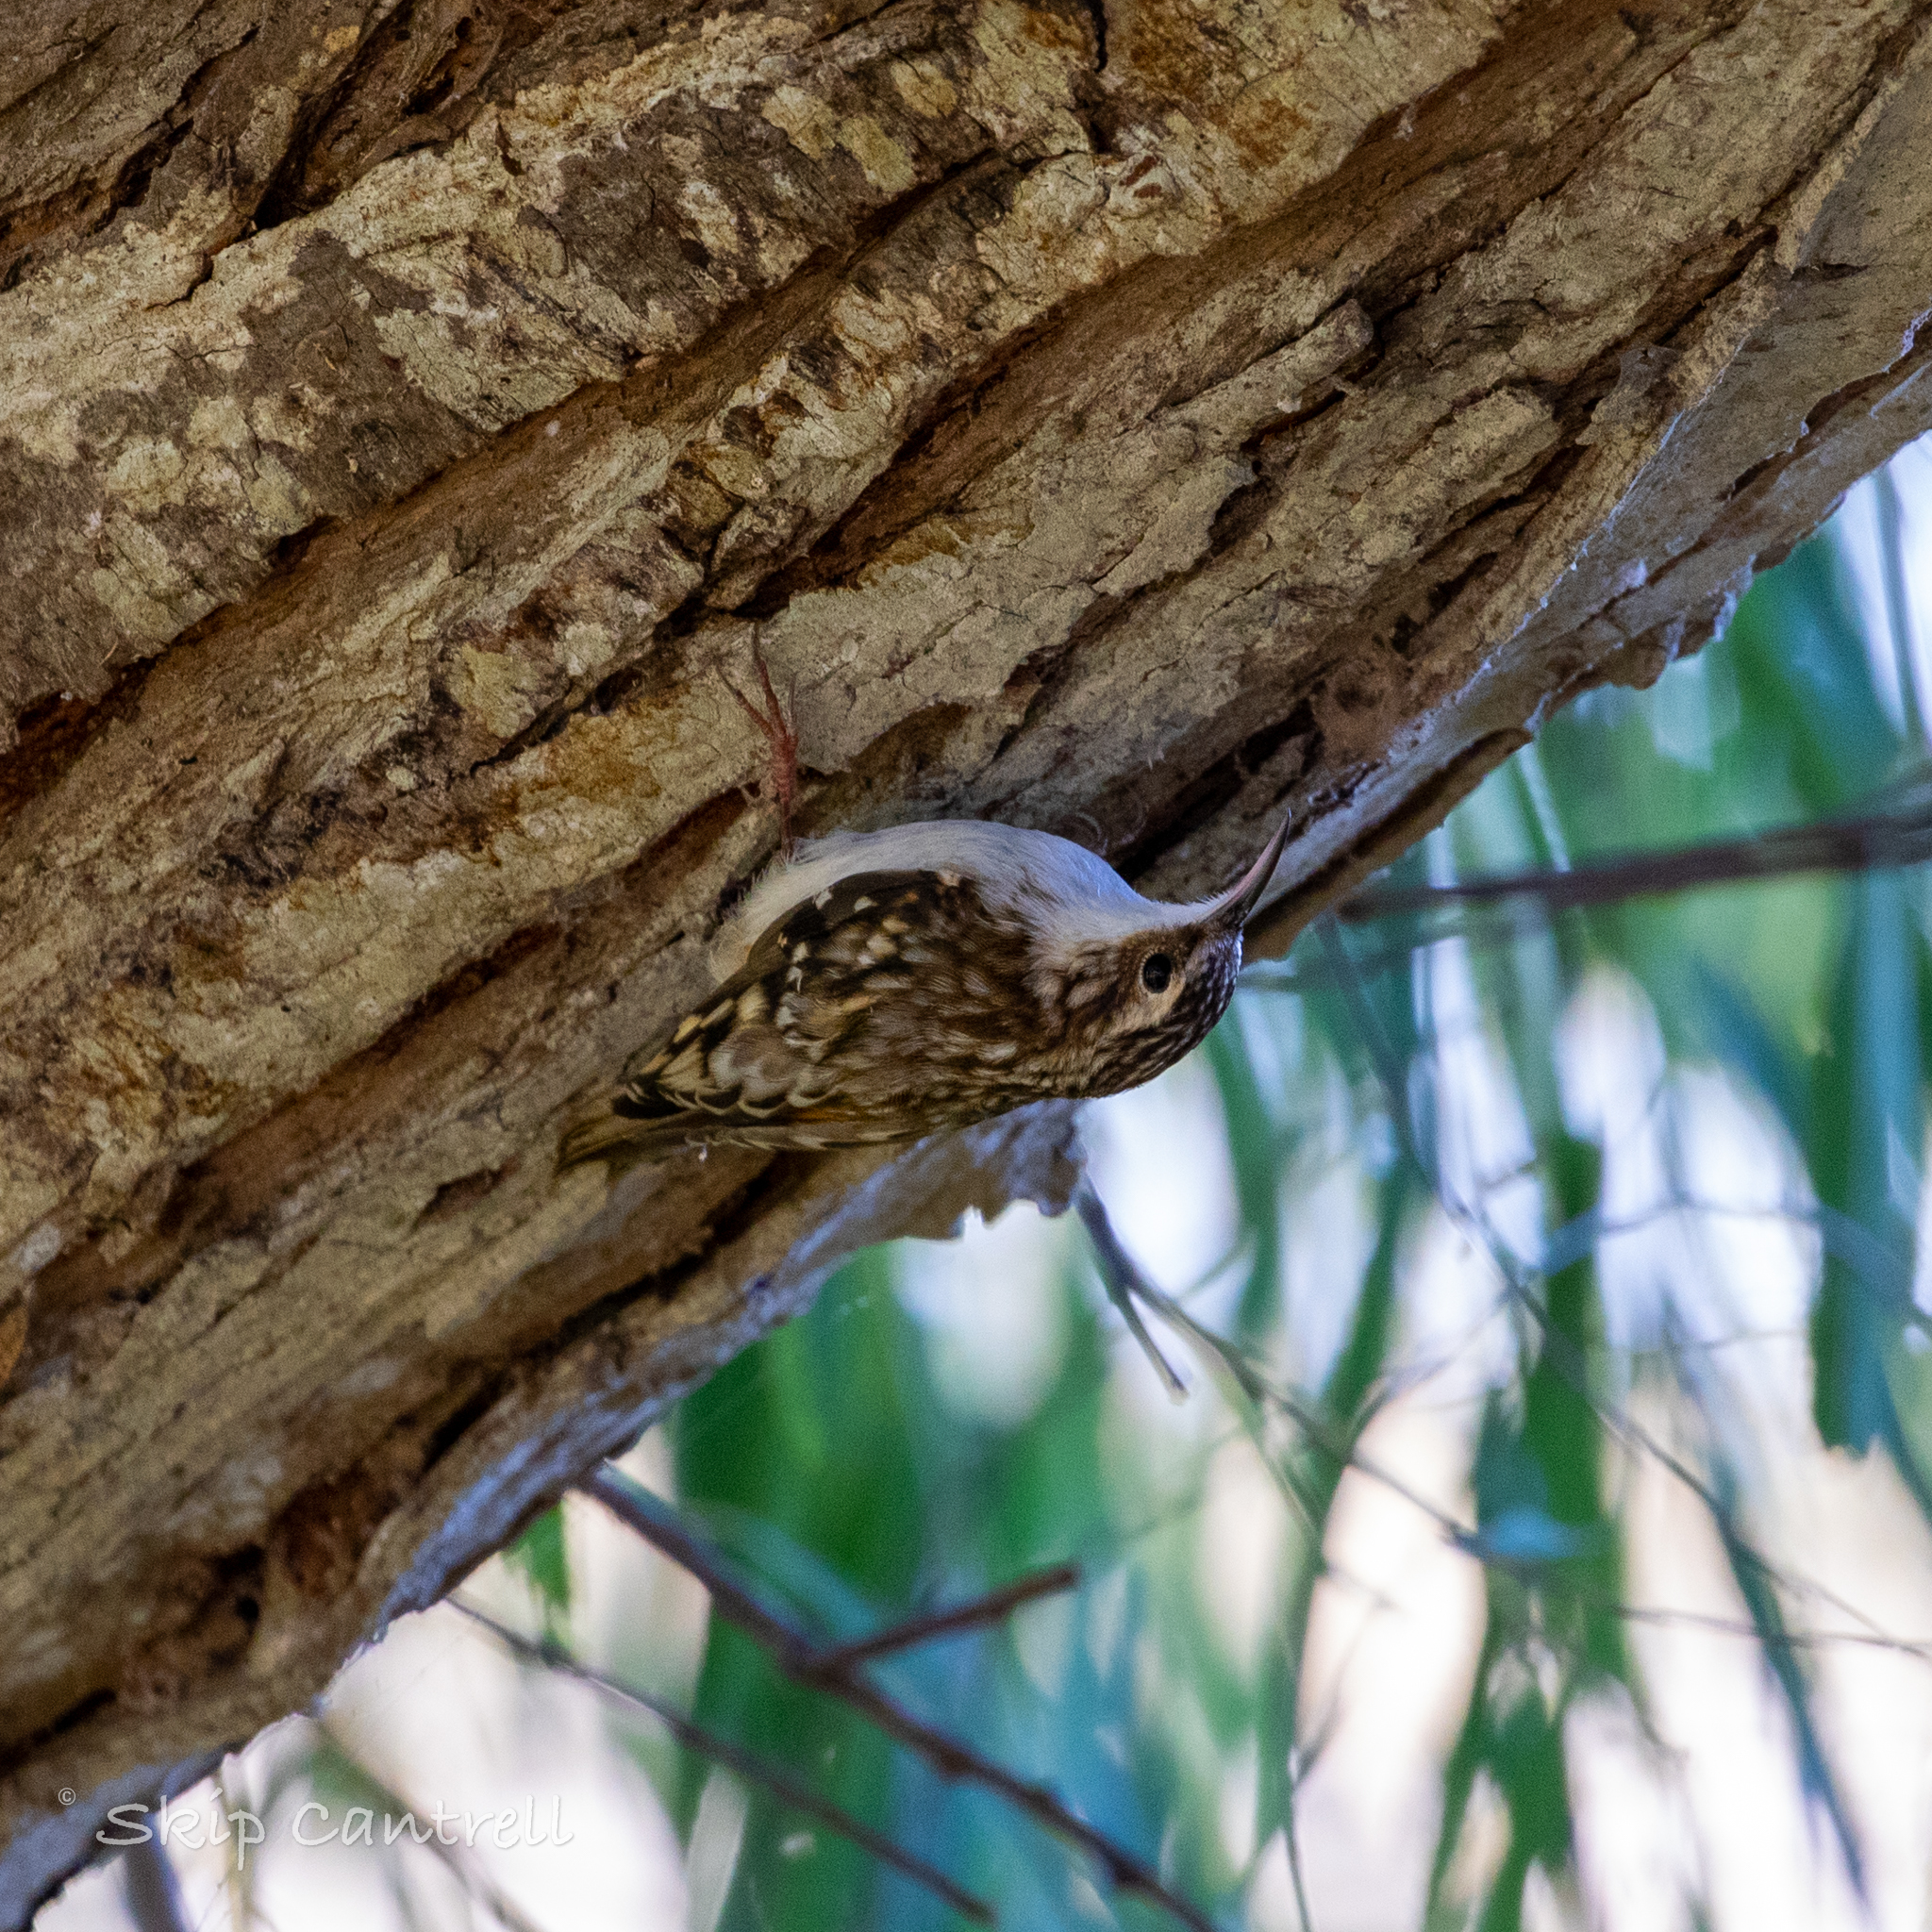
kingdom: Animalia
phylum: Chordata
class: Aves
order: Passeriformes
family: Certhiidae
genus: Certhia
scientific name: Certhia americana
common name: Brown creeper
